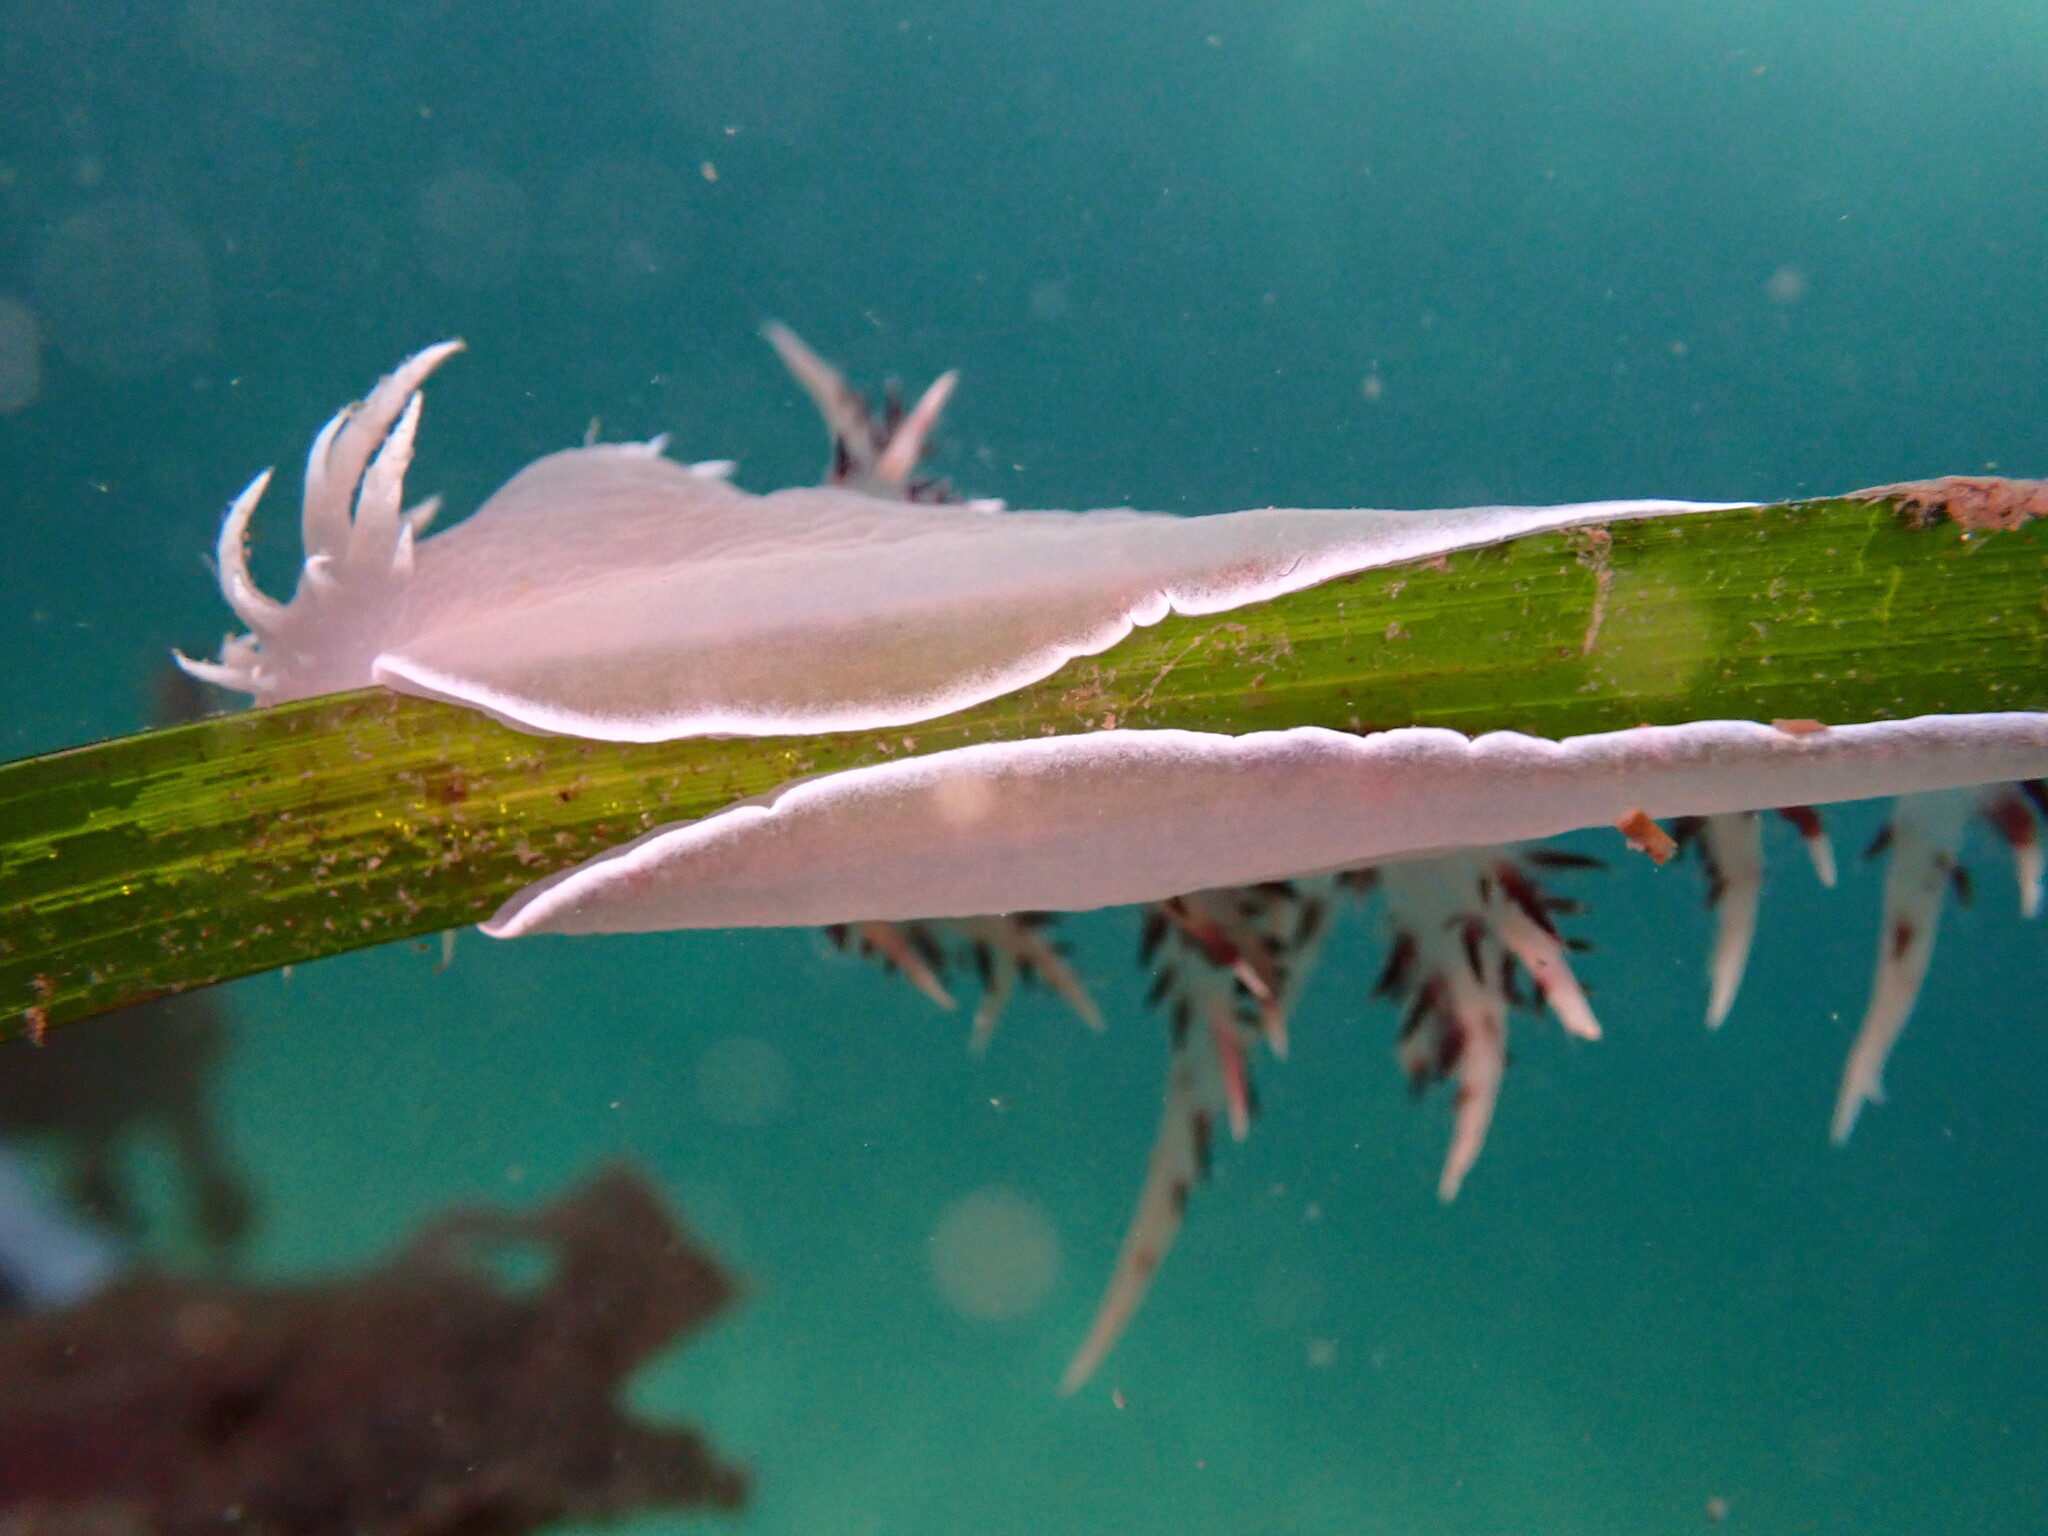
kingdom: Animalia
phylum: Mollusca
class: Gastropoda
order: Nudibranchia
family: Dendronotidae
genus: Dendronotus
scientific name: Dendronotus iris
